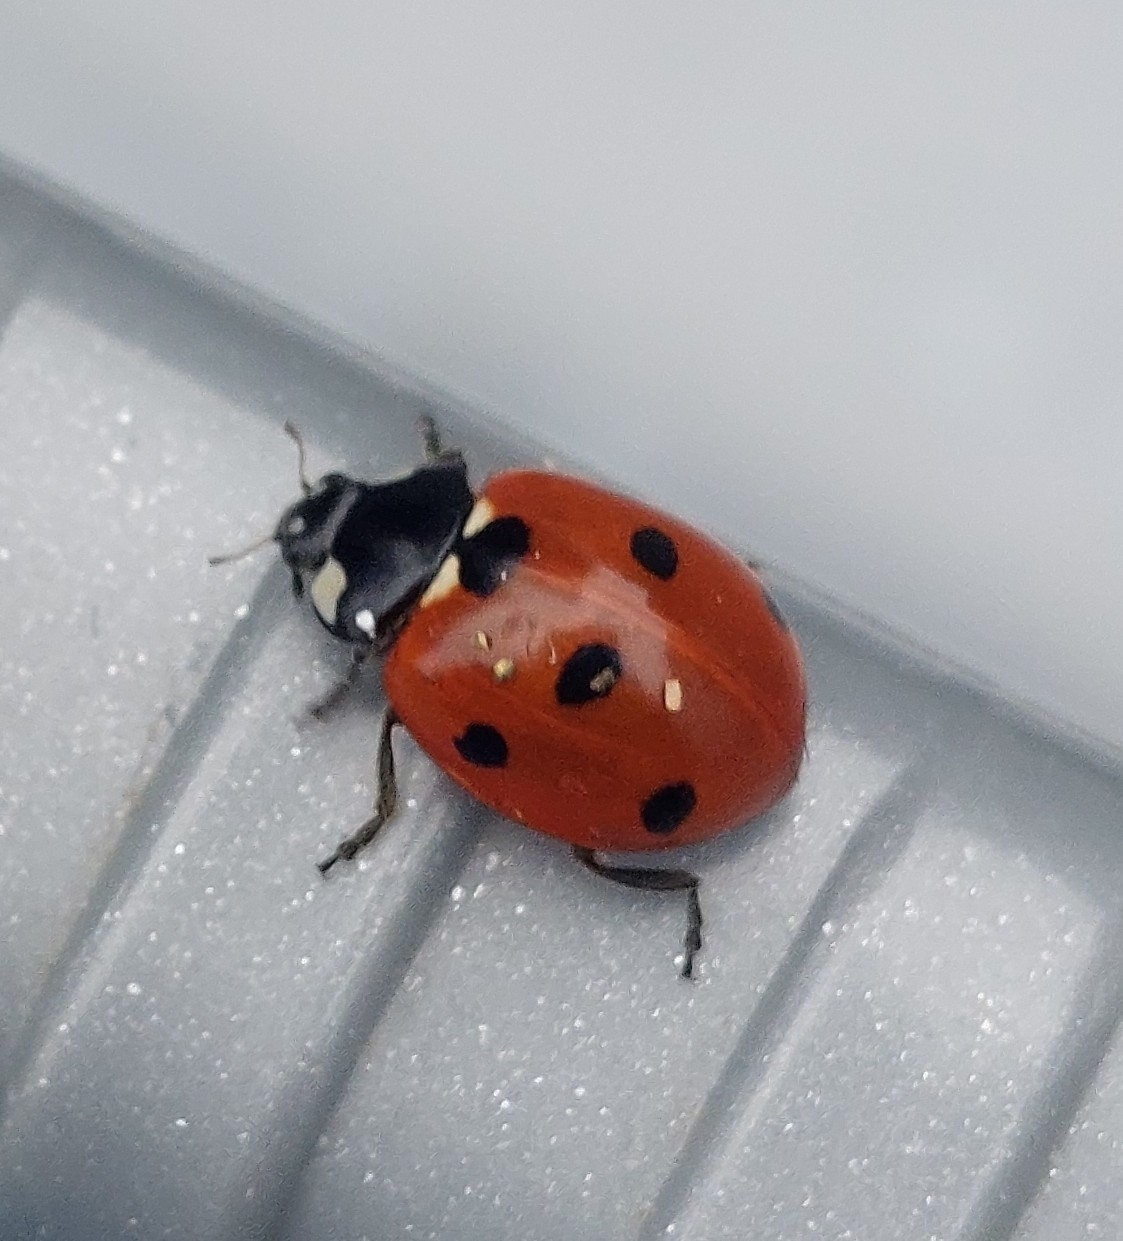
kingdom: Animalia
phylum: Arthropoda
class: Insecta
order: Coleoptera
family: Coccinellidae
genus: Coccinella
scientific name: Coccinella septempunctata
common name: Sevenspotted lady beetle
